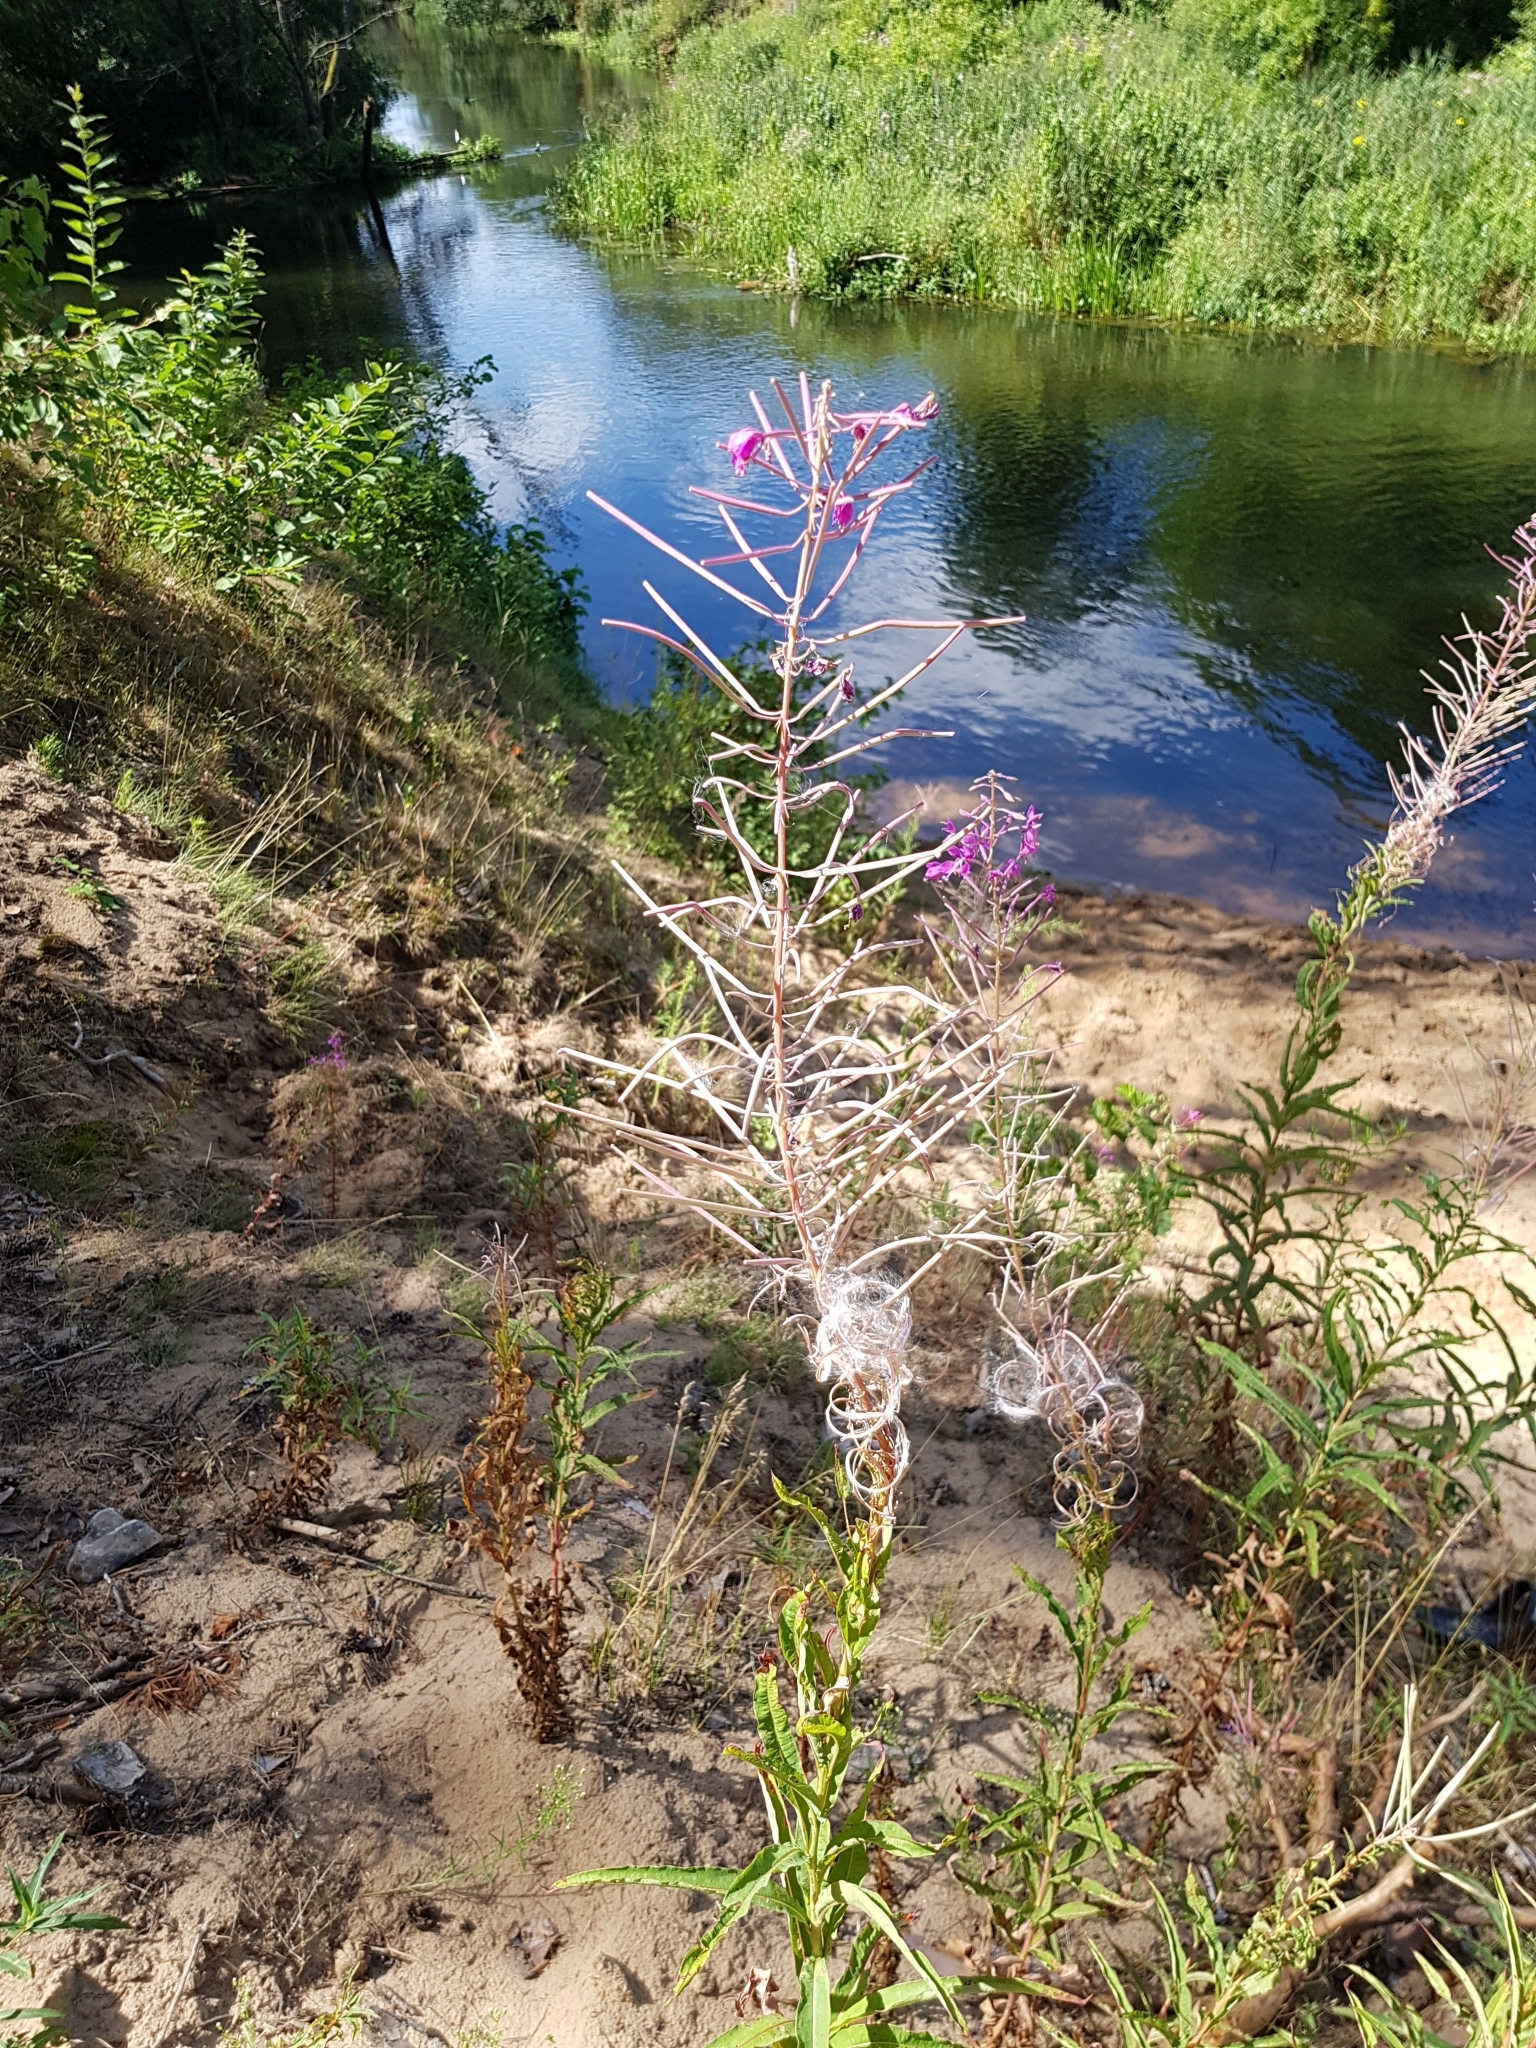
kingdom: Plantae
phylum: Tracheophyta
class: Magnoliopsida
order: Myrtales
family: Onagraceae
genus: Chamaenerion
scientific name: Chamaenerion angustifolium
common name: Fireweed
